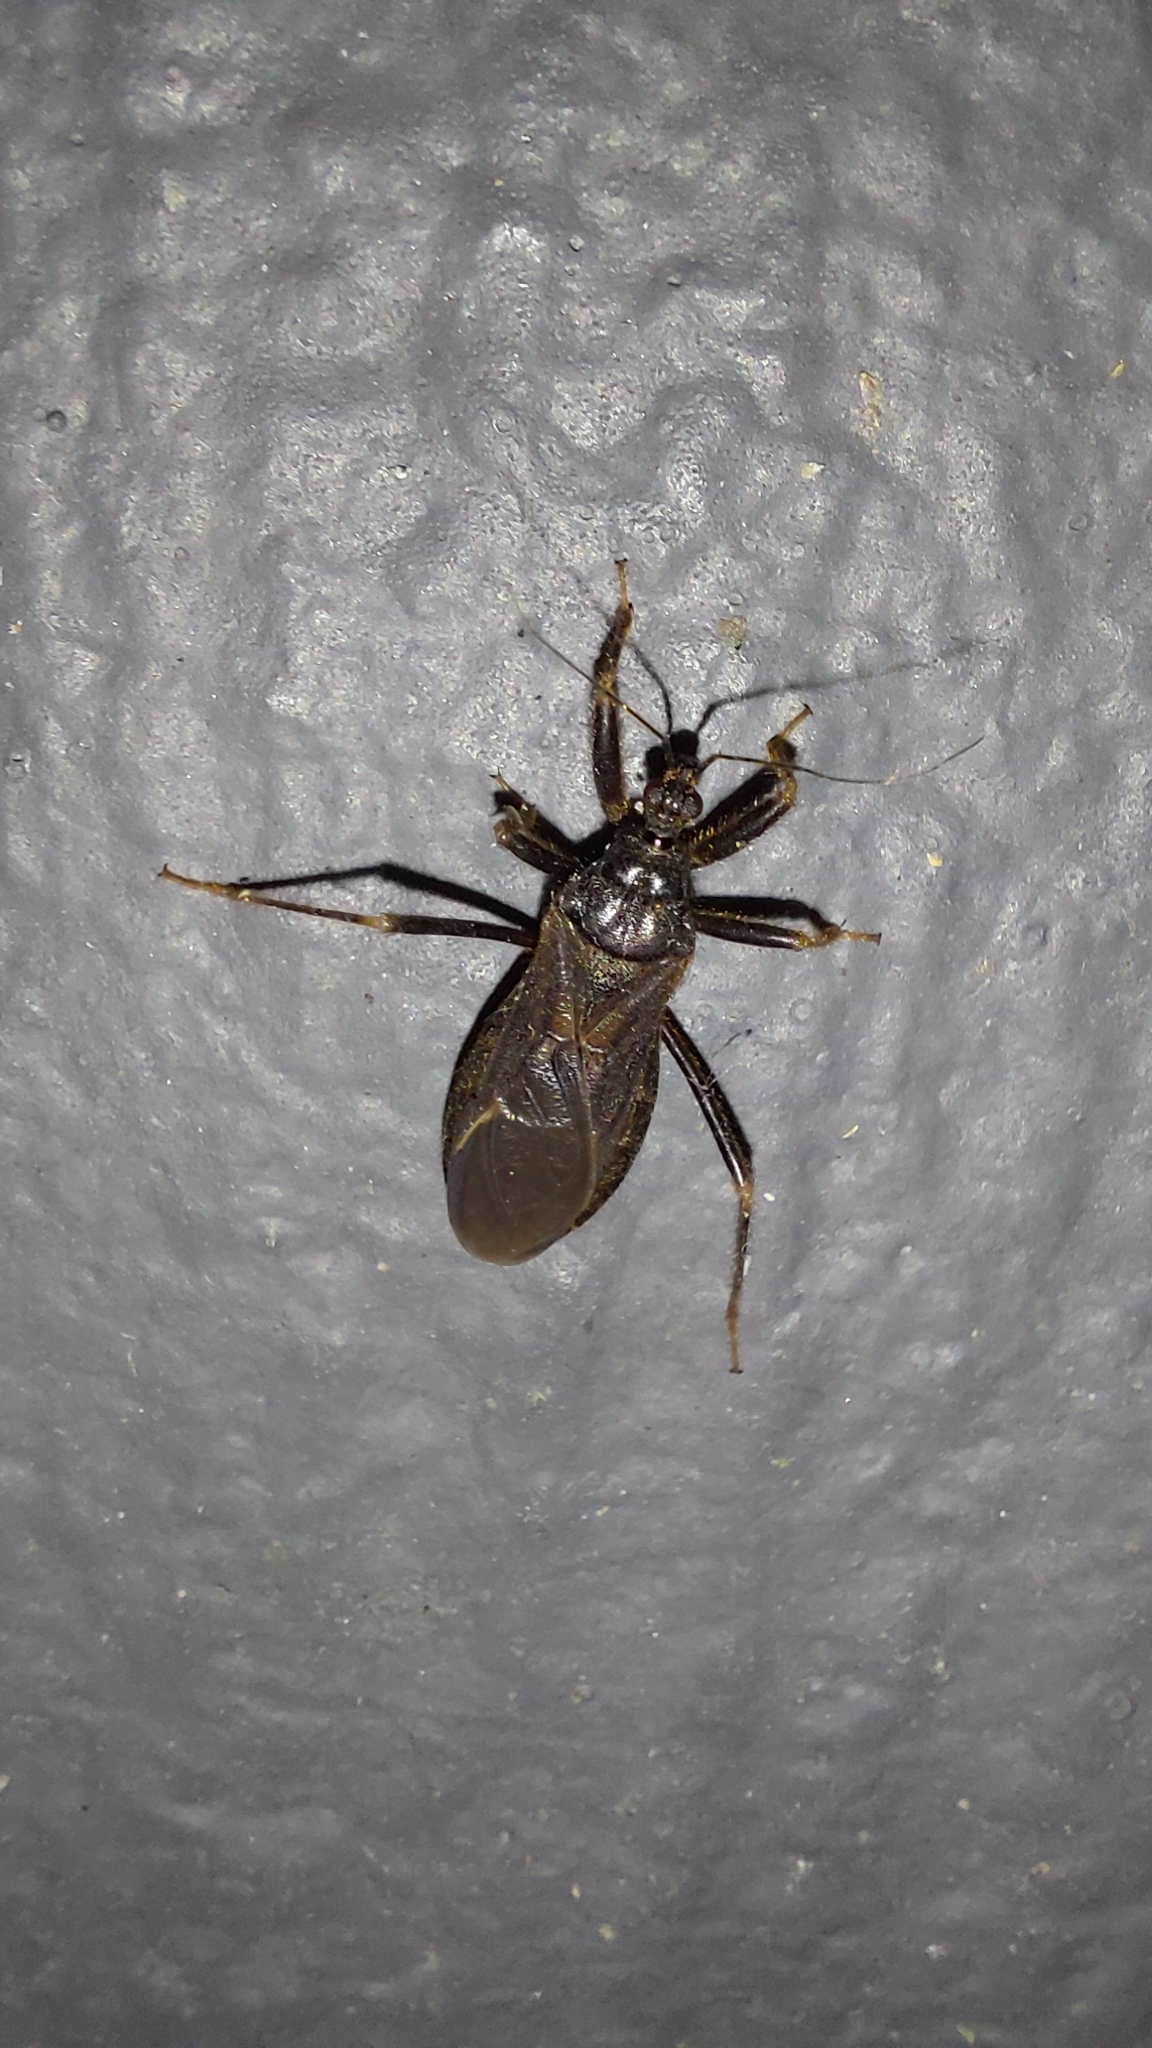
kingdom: Animalia
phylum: Arthropoda
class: Insecta
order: Hemiptera
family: Reduviidae
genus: Reduvius
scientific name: Reduvius personatus
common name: Masked hunter
